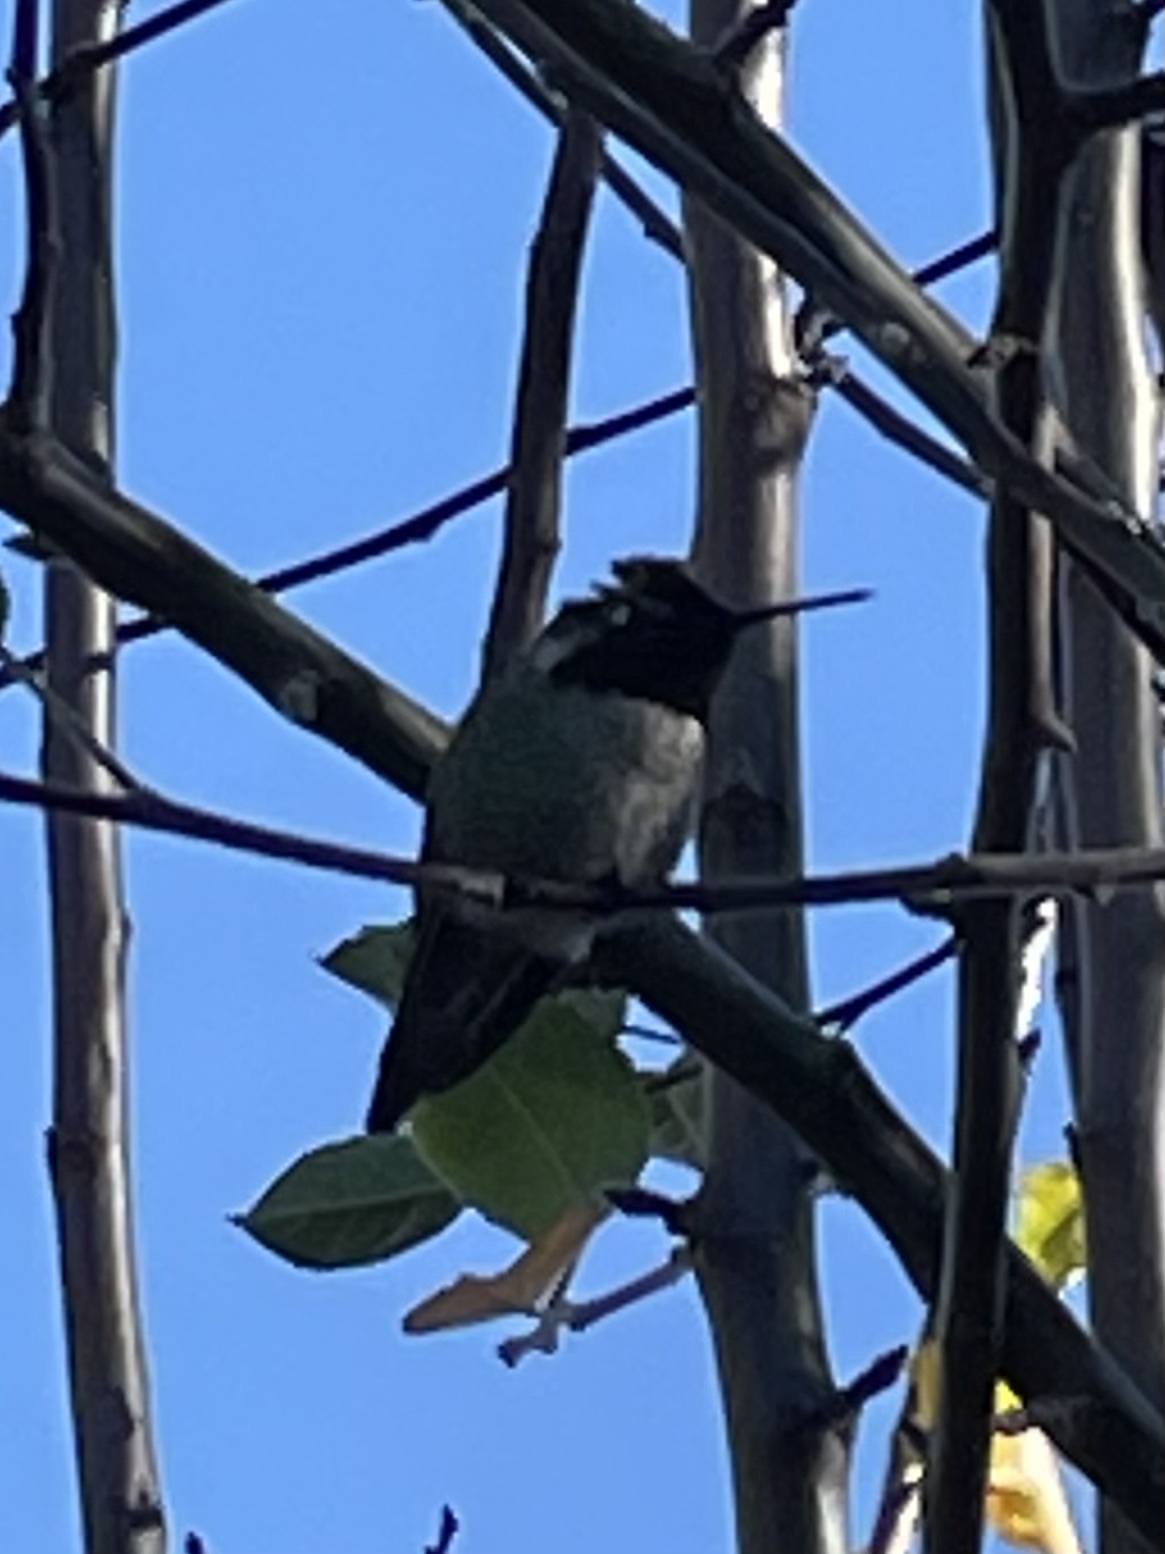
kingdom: Animalia
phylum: Chordata
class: Aves
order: Apodiformes
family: Trochilidae
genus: Calypte
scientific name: Calypte anna
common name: Anna's hummingbird
